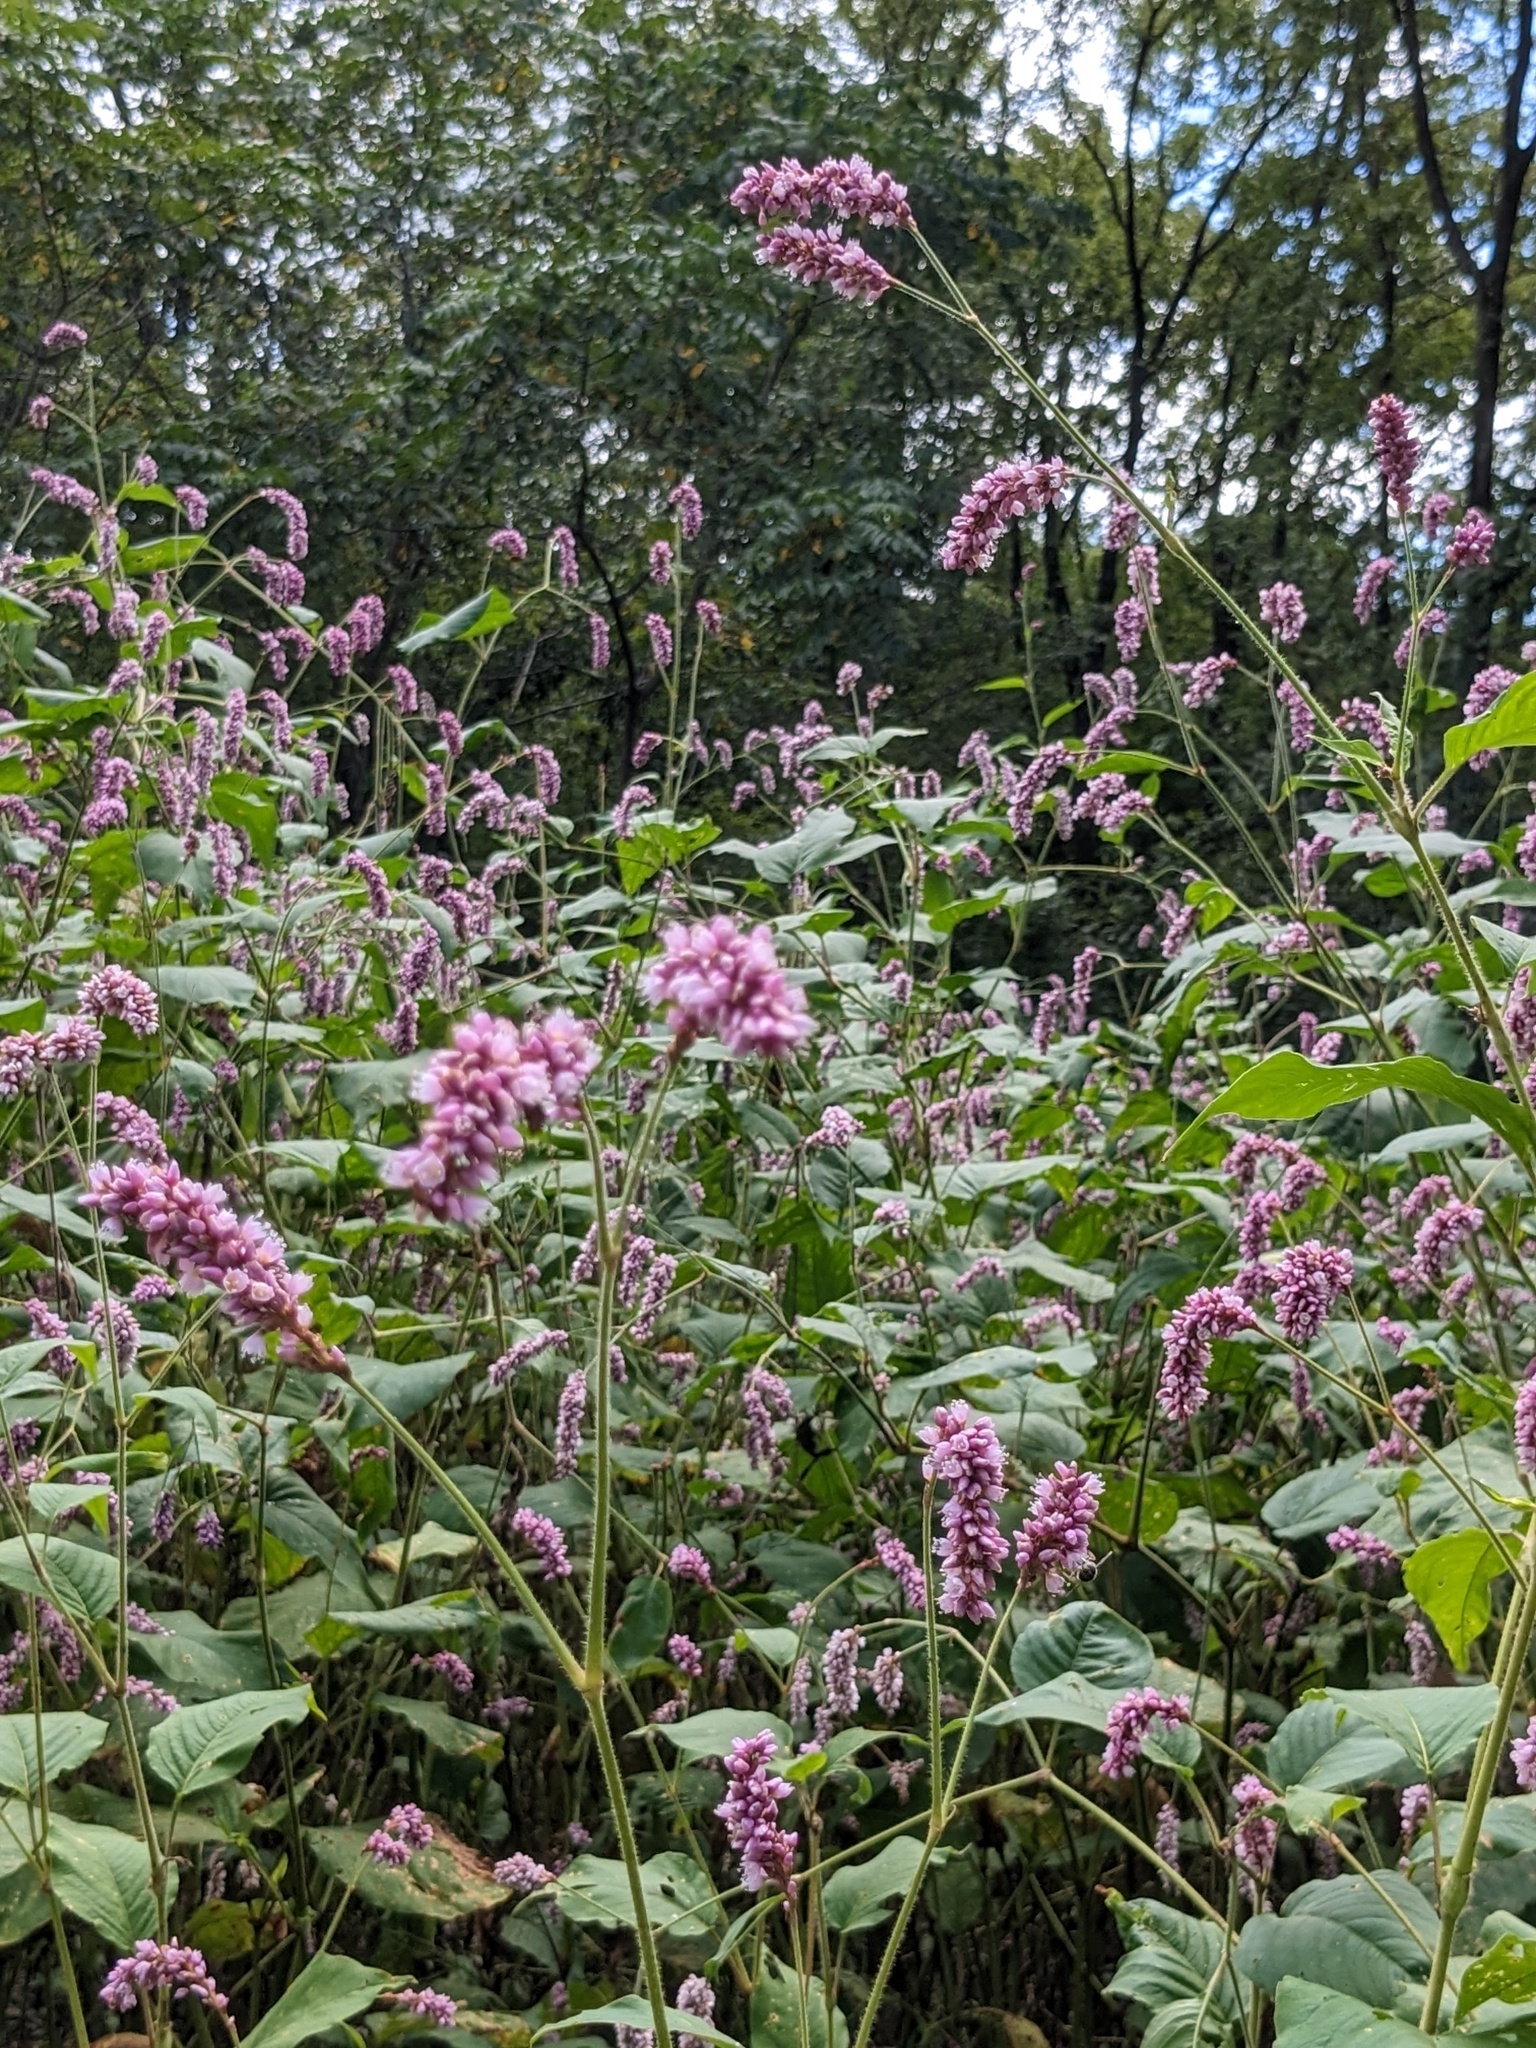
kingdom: Plantae
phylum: Tracheophyta
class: Magnoliopsida
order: Caryophyllales
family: Polygonaceae
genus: Persicaria
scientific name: Persicaria orientalis
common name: Kiss-me-over-the-garden-gate
